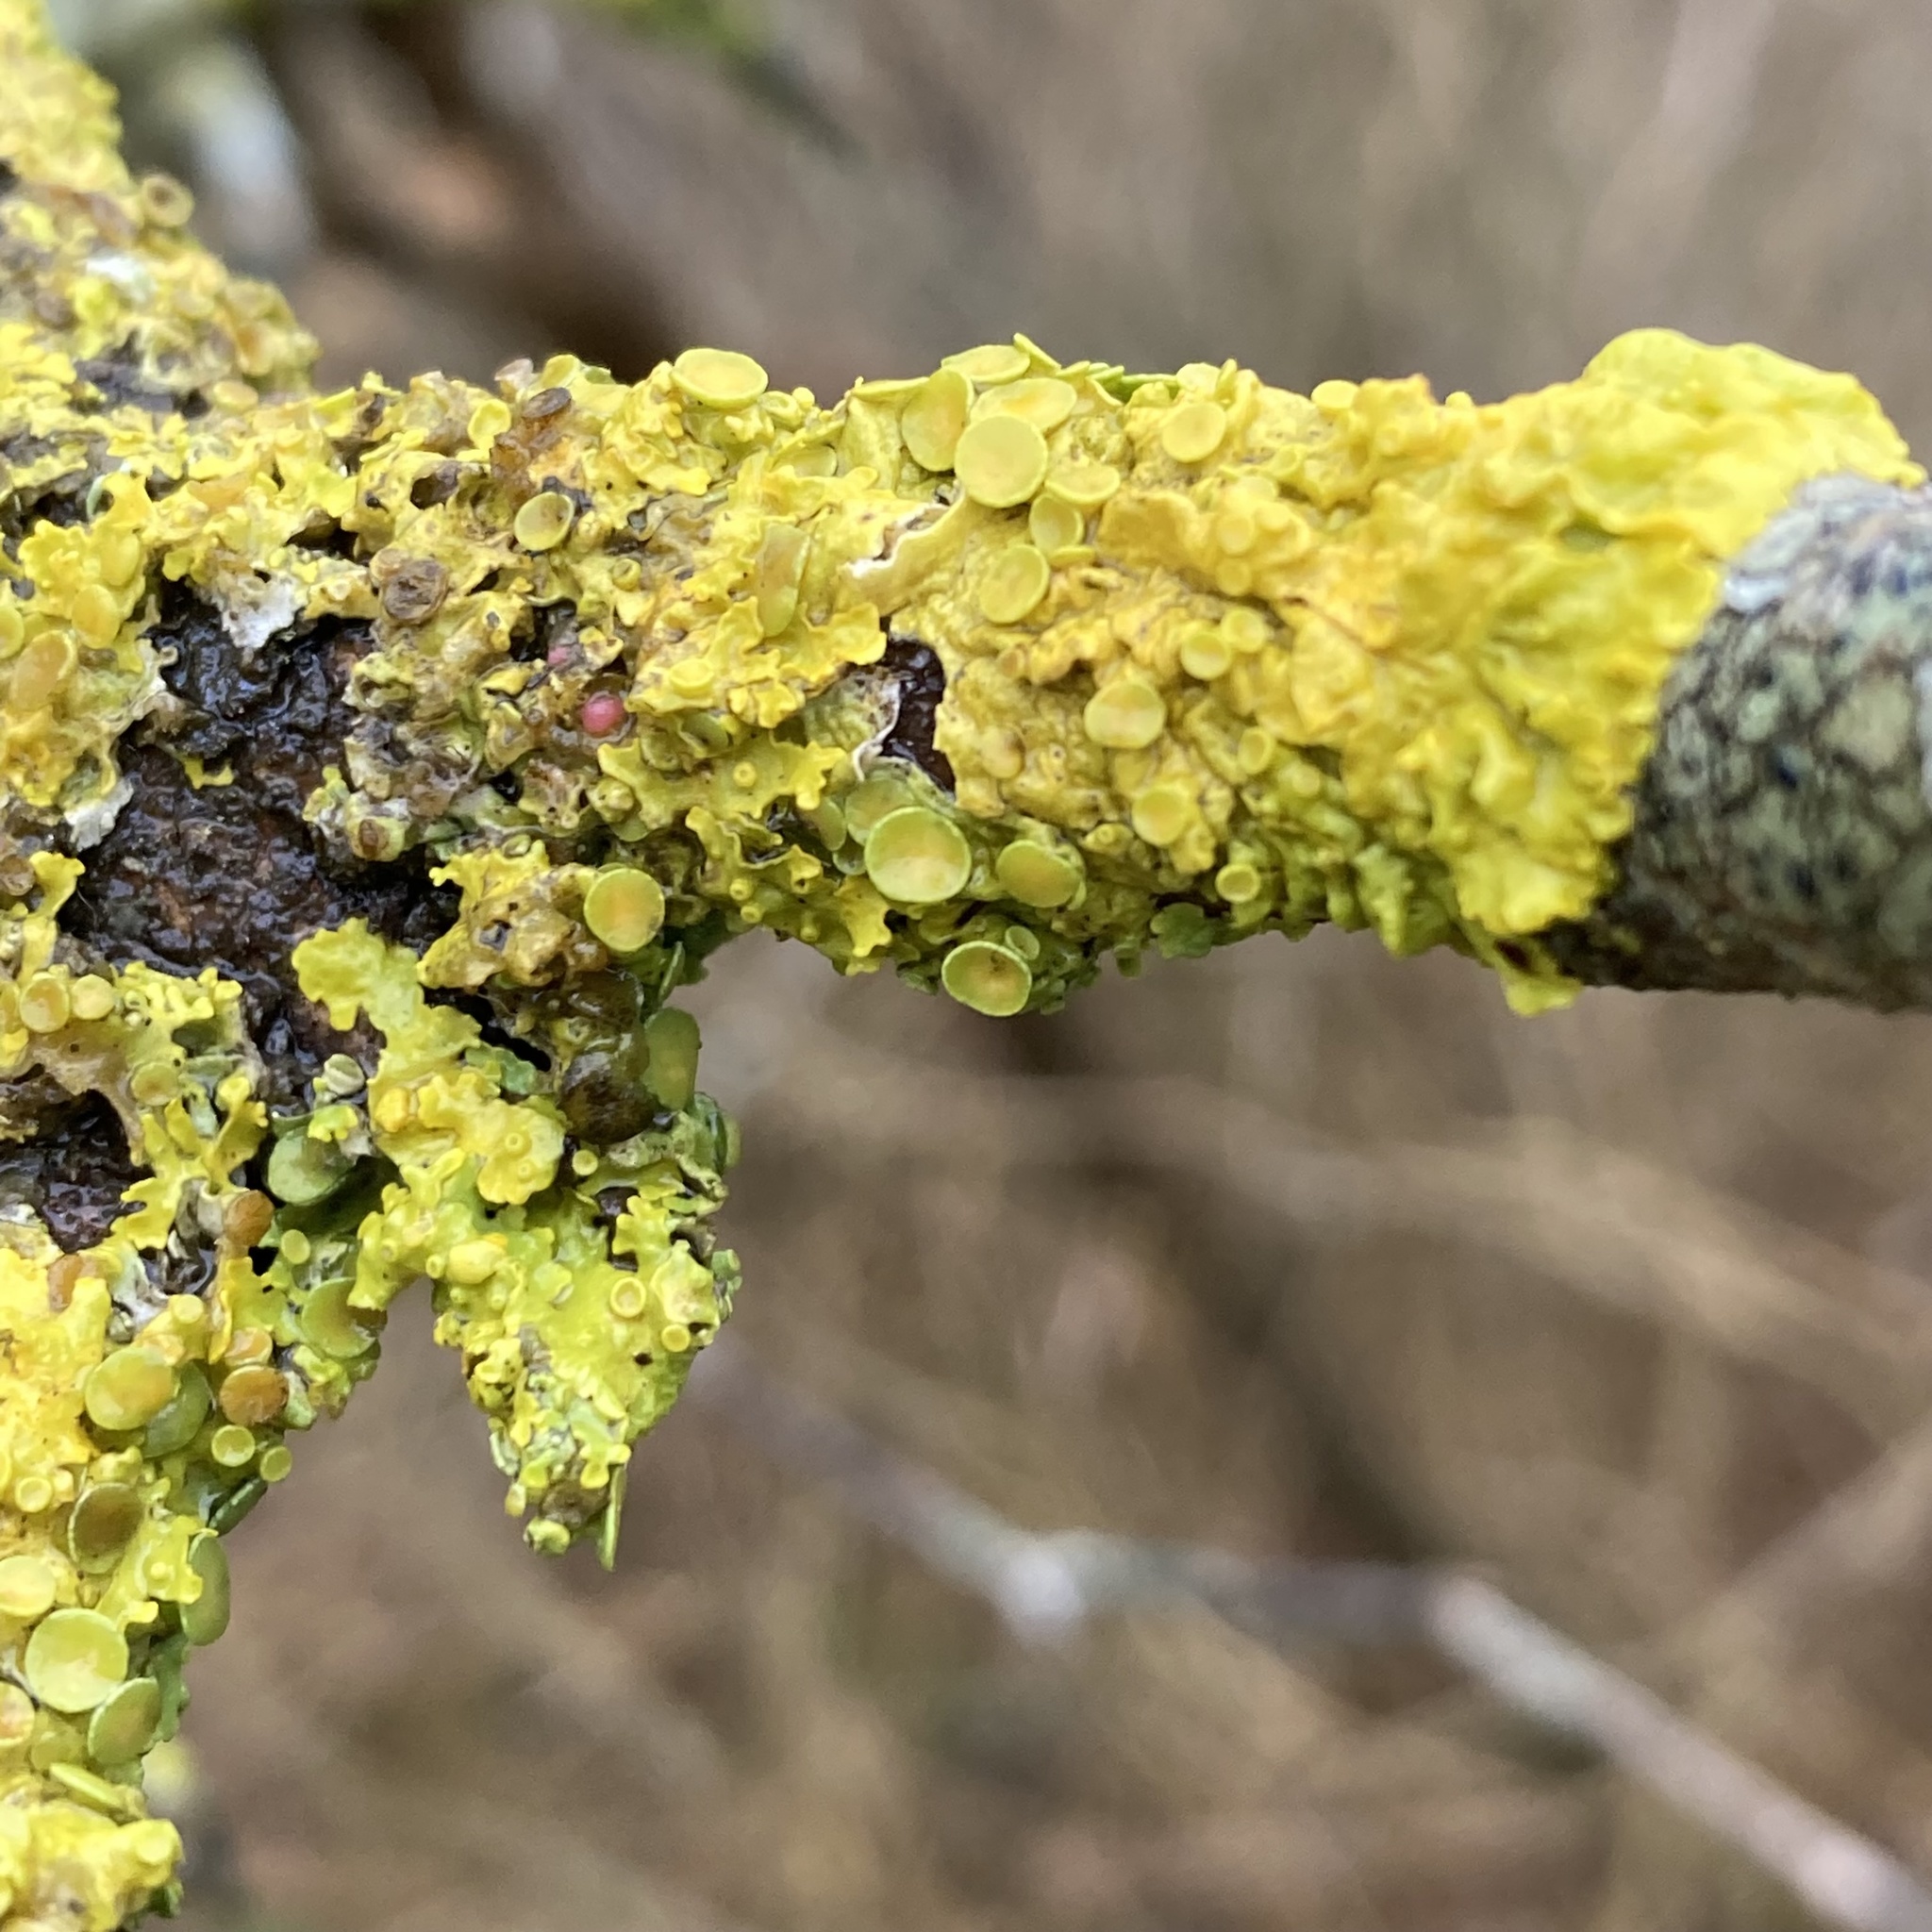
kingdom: Fungi
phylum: Ascomycota
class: Lecanoromycetes
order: Teloschistales
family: Teloschistaceae
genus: Xanthoria
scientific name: Xanthoria parietina
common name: Common orange lichen
